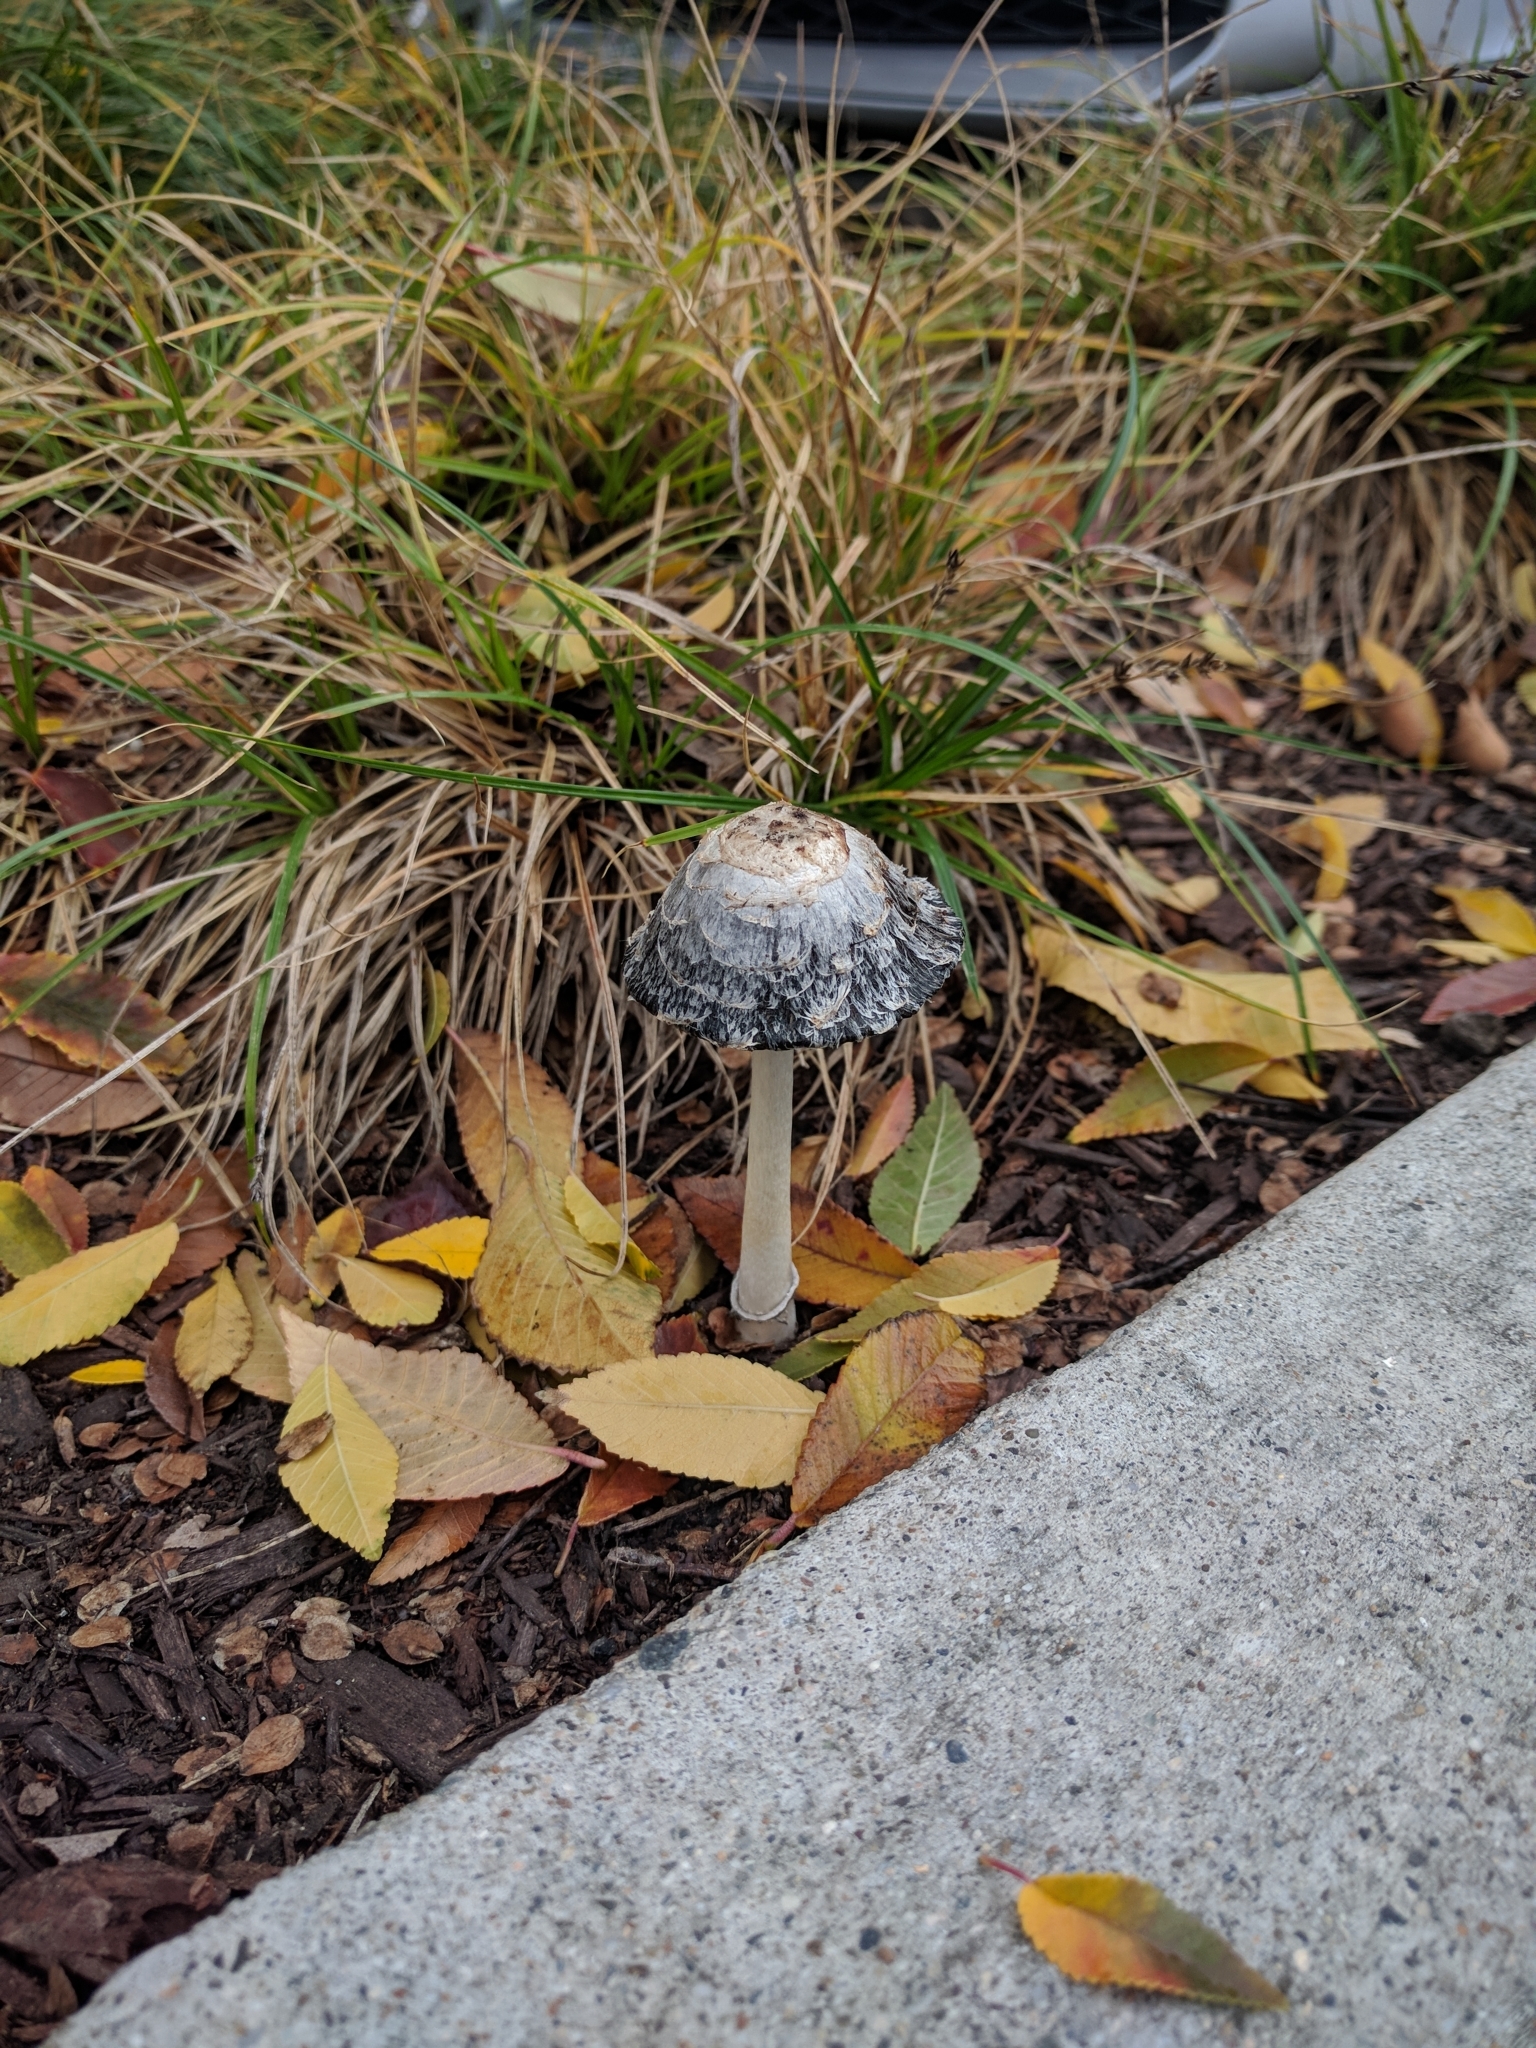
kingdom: Fungi
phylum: Basidiomycota
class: Agaricomycetes
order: Agaricales
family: Agaricaceae
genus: Coprinus
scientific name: Coprinus comatus
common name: Lawyer's wig
